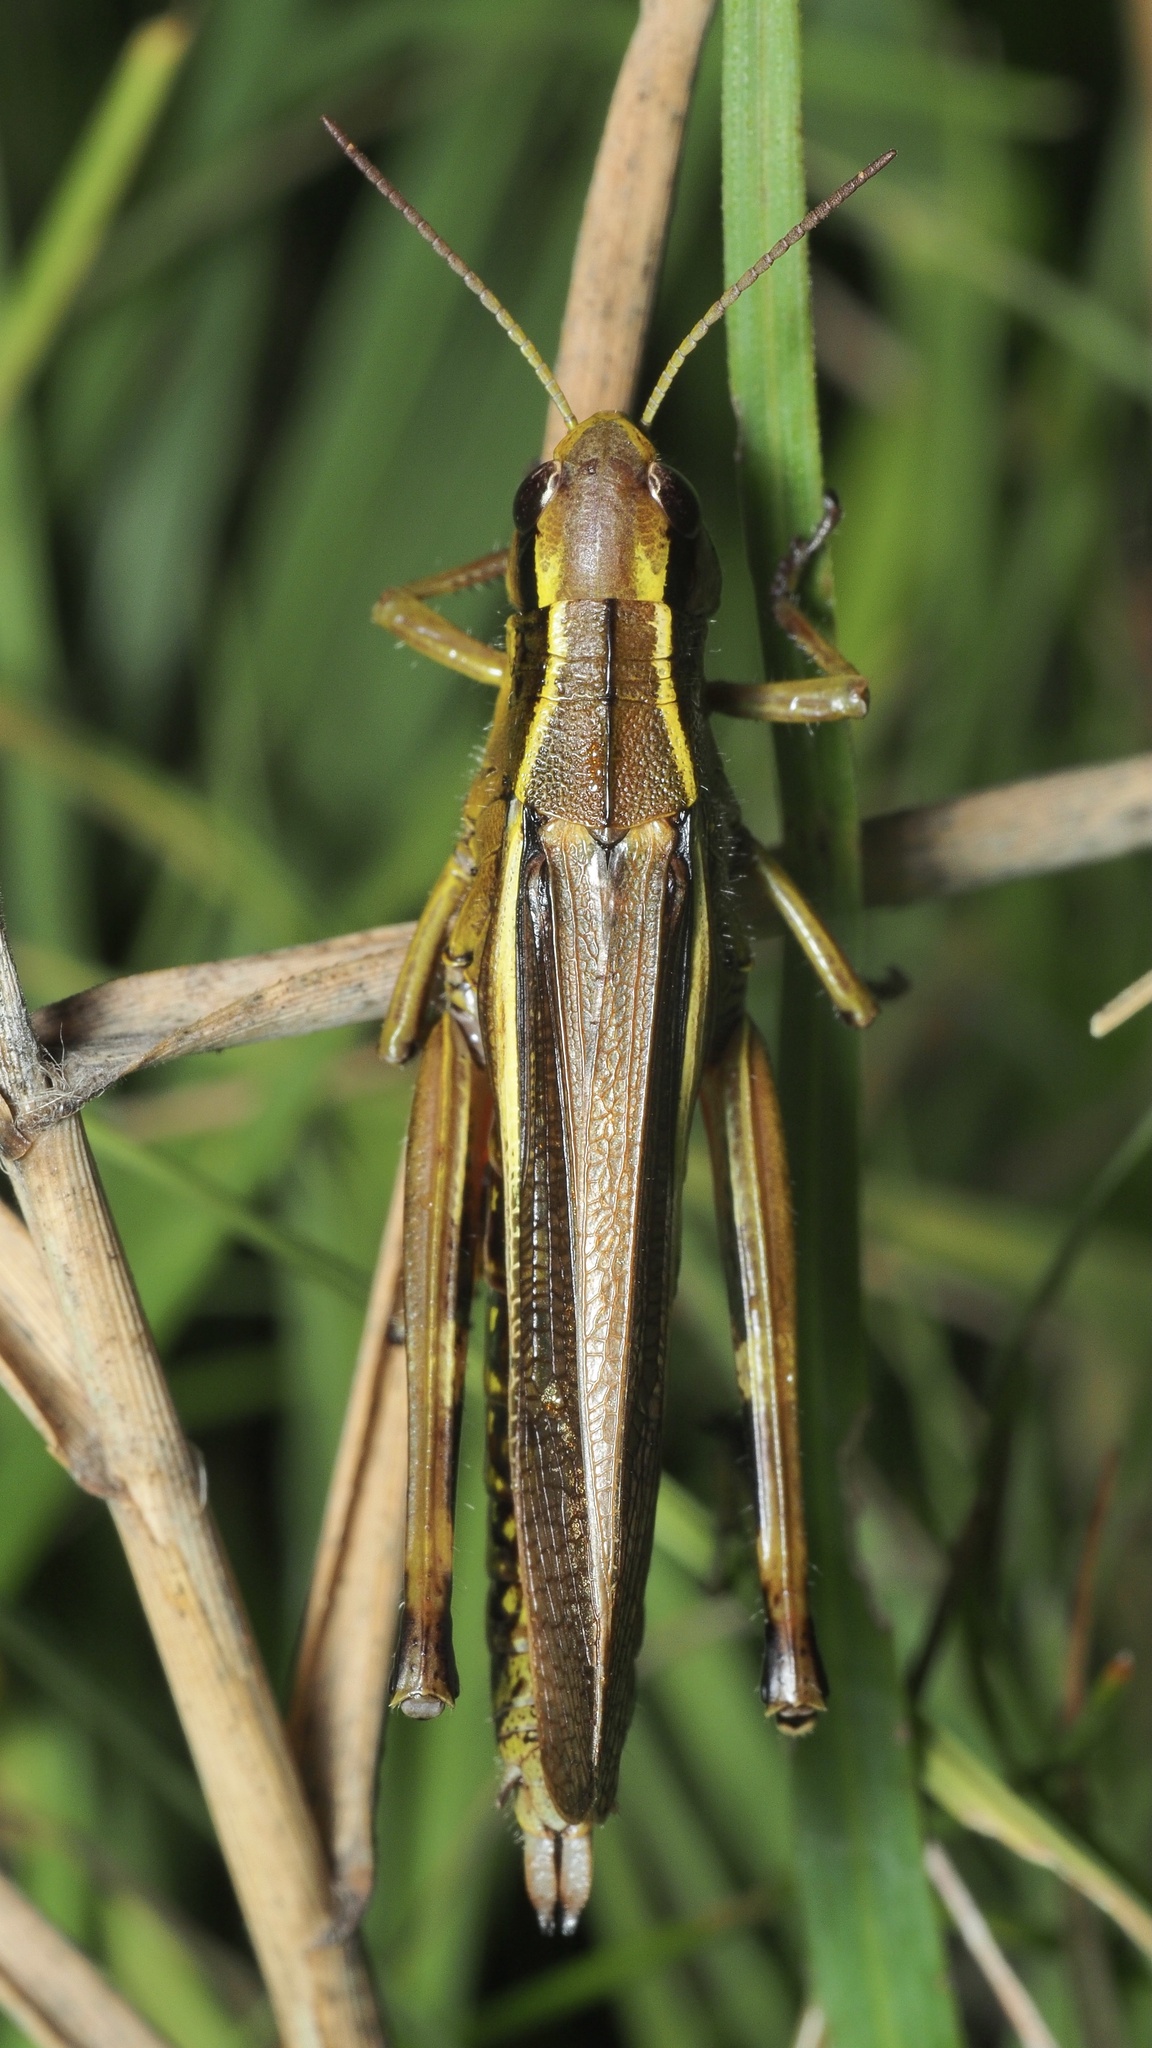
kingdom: Animalia
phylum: Arthropoda
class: Insecta
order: Orthoptera
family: Acrididae
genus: Stethophyma
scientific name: Stethophyma grossum
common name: Large marsh grasshopper
